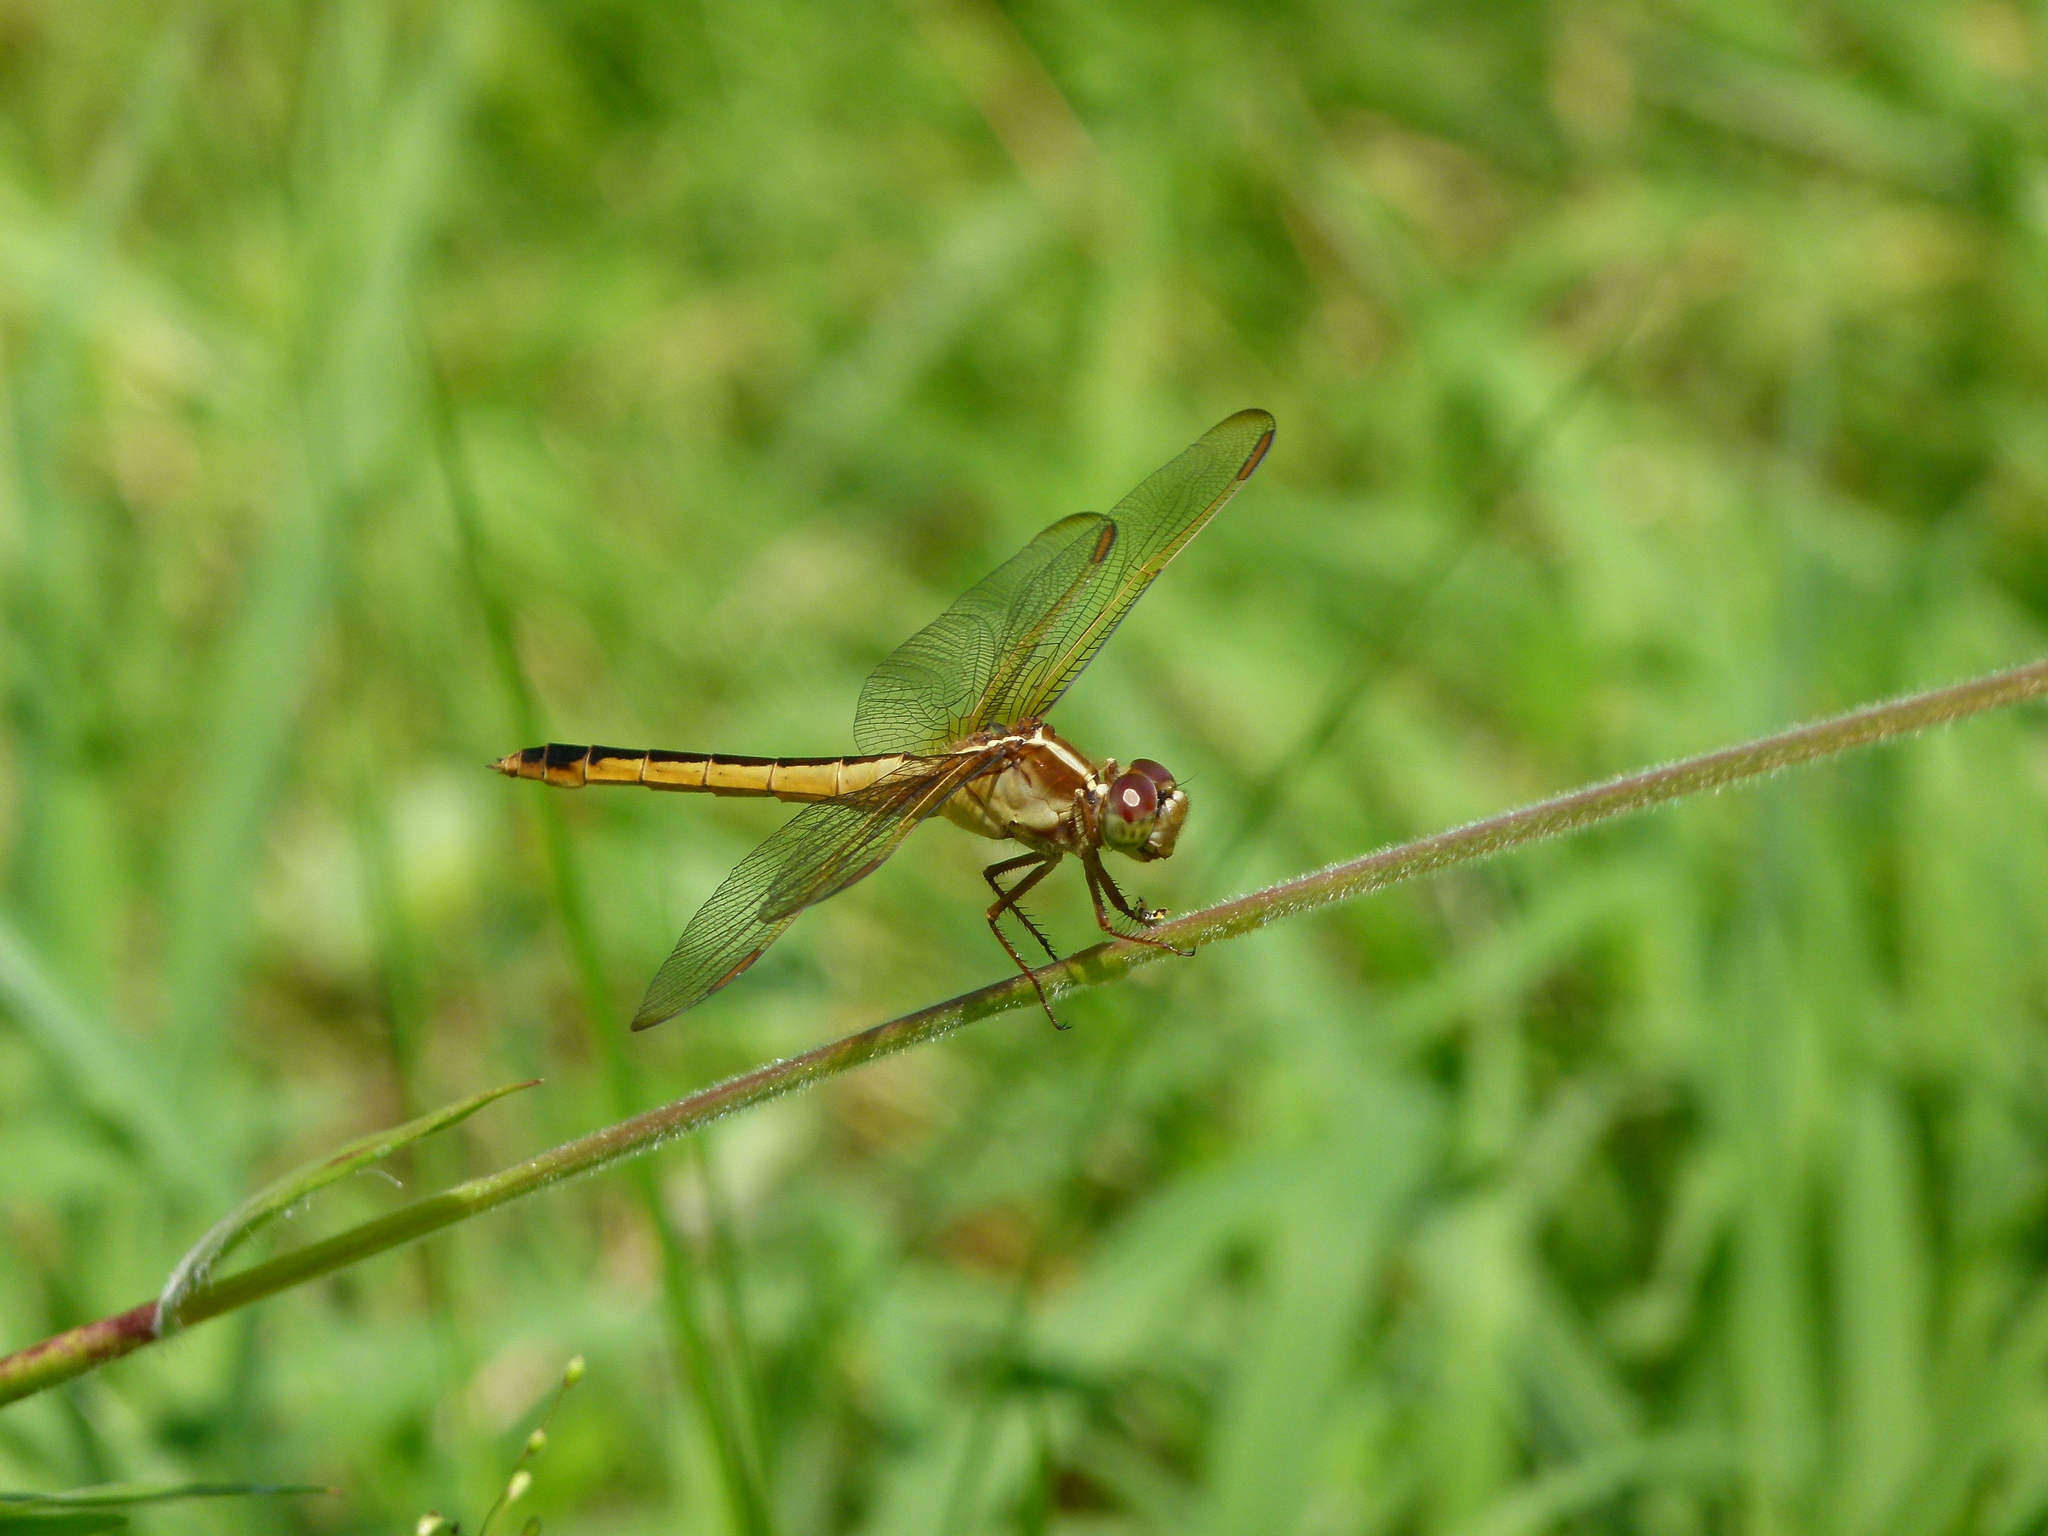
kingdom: Animalia
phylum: Arthropoda
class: Insecta
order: Odonata
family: Libellulidae
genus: Libellula
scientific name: Libellula needhami
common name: Needham's skimmer
